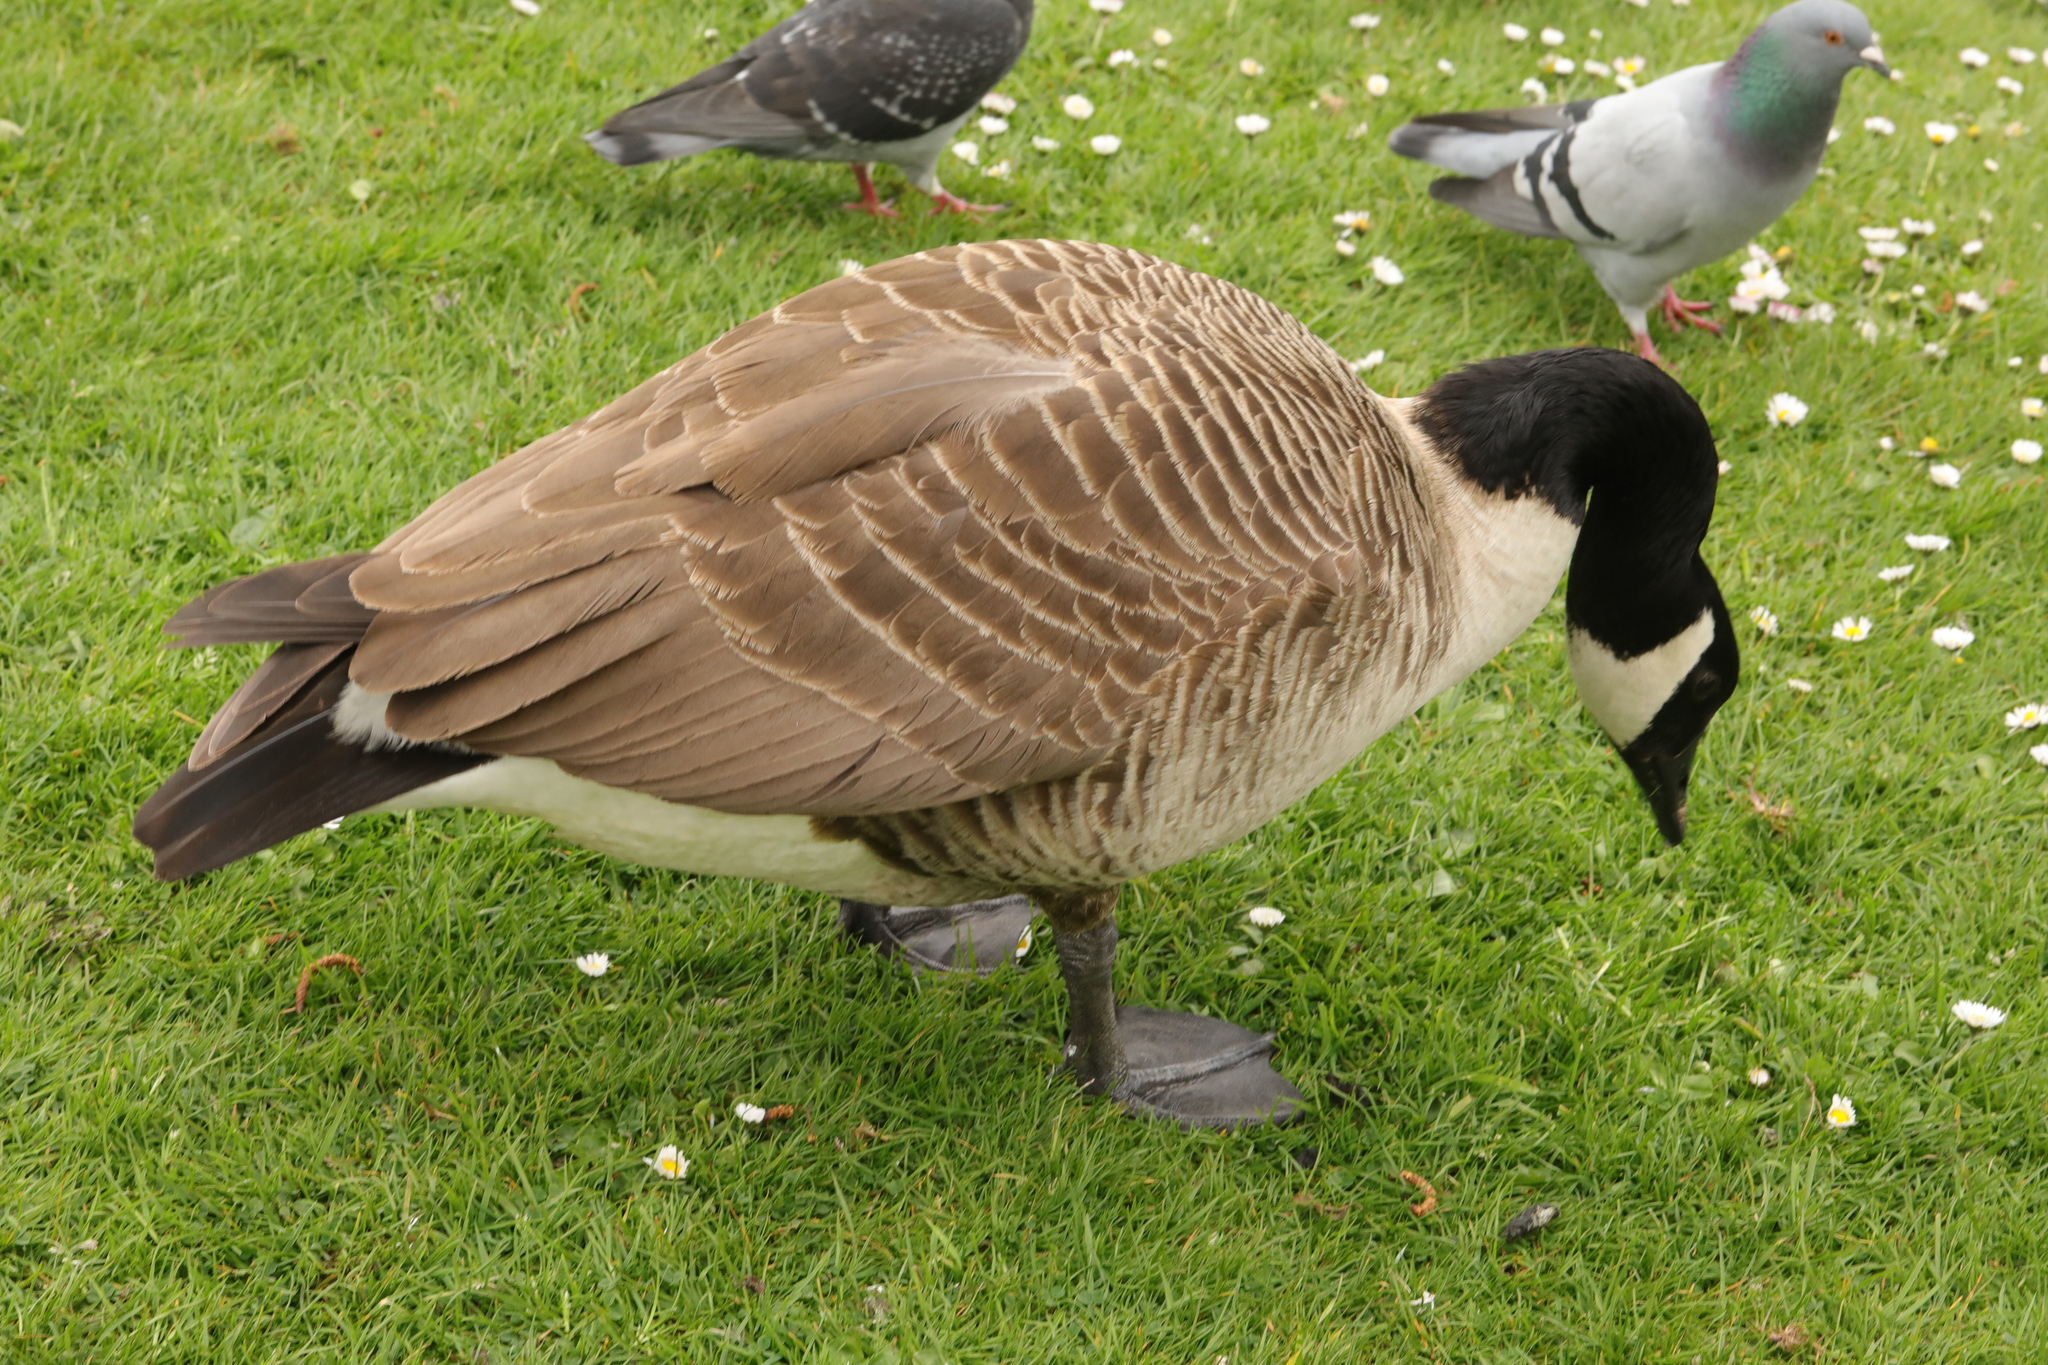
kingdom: Animalia
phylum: Chordata
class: Aves
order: Anseriformes
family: Anatidae
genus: Branta
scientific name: Branta canadensis
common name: Canada goose
